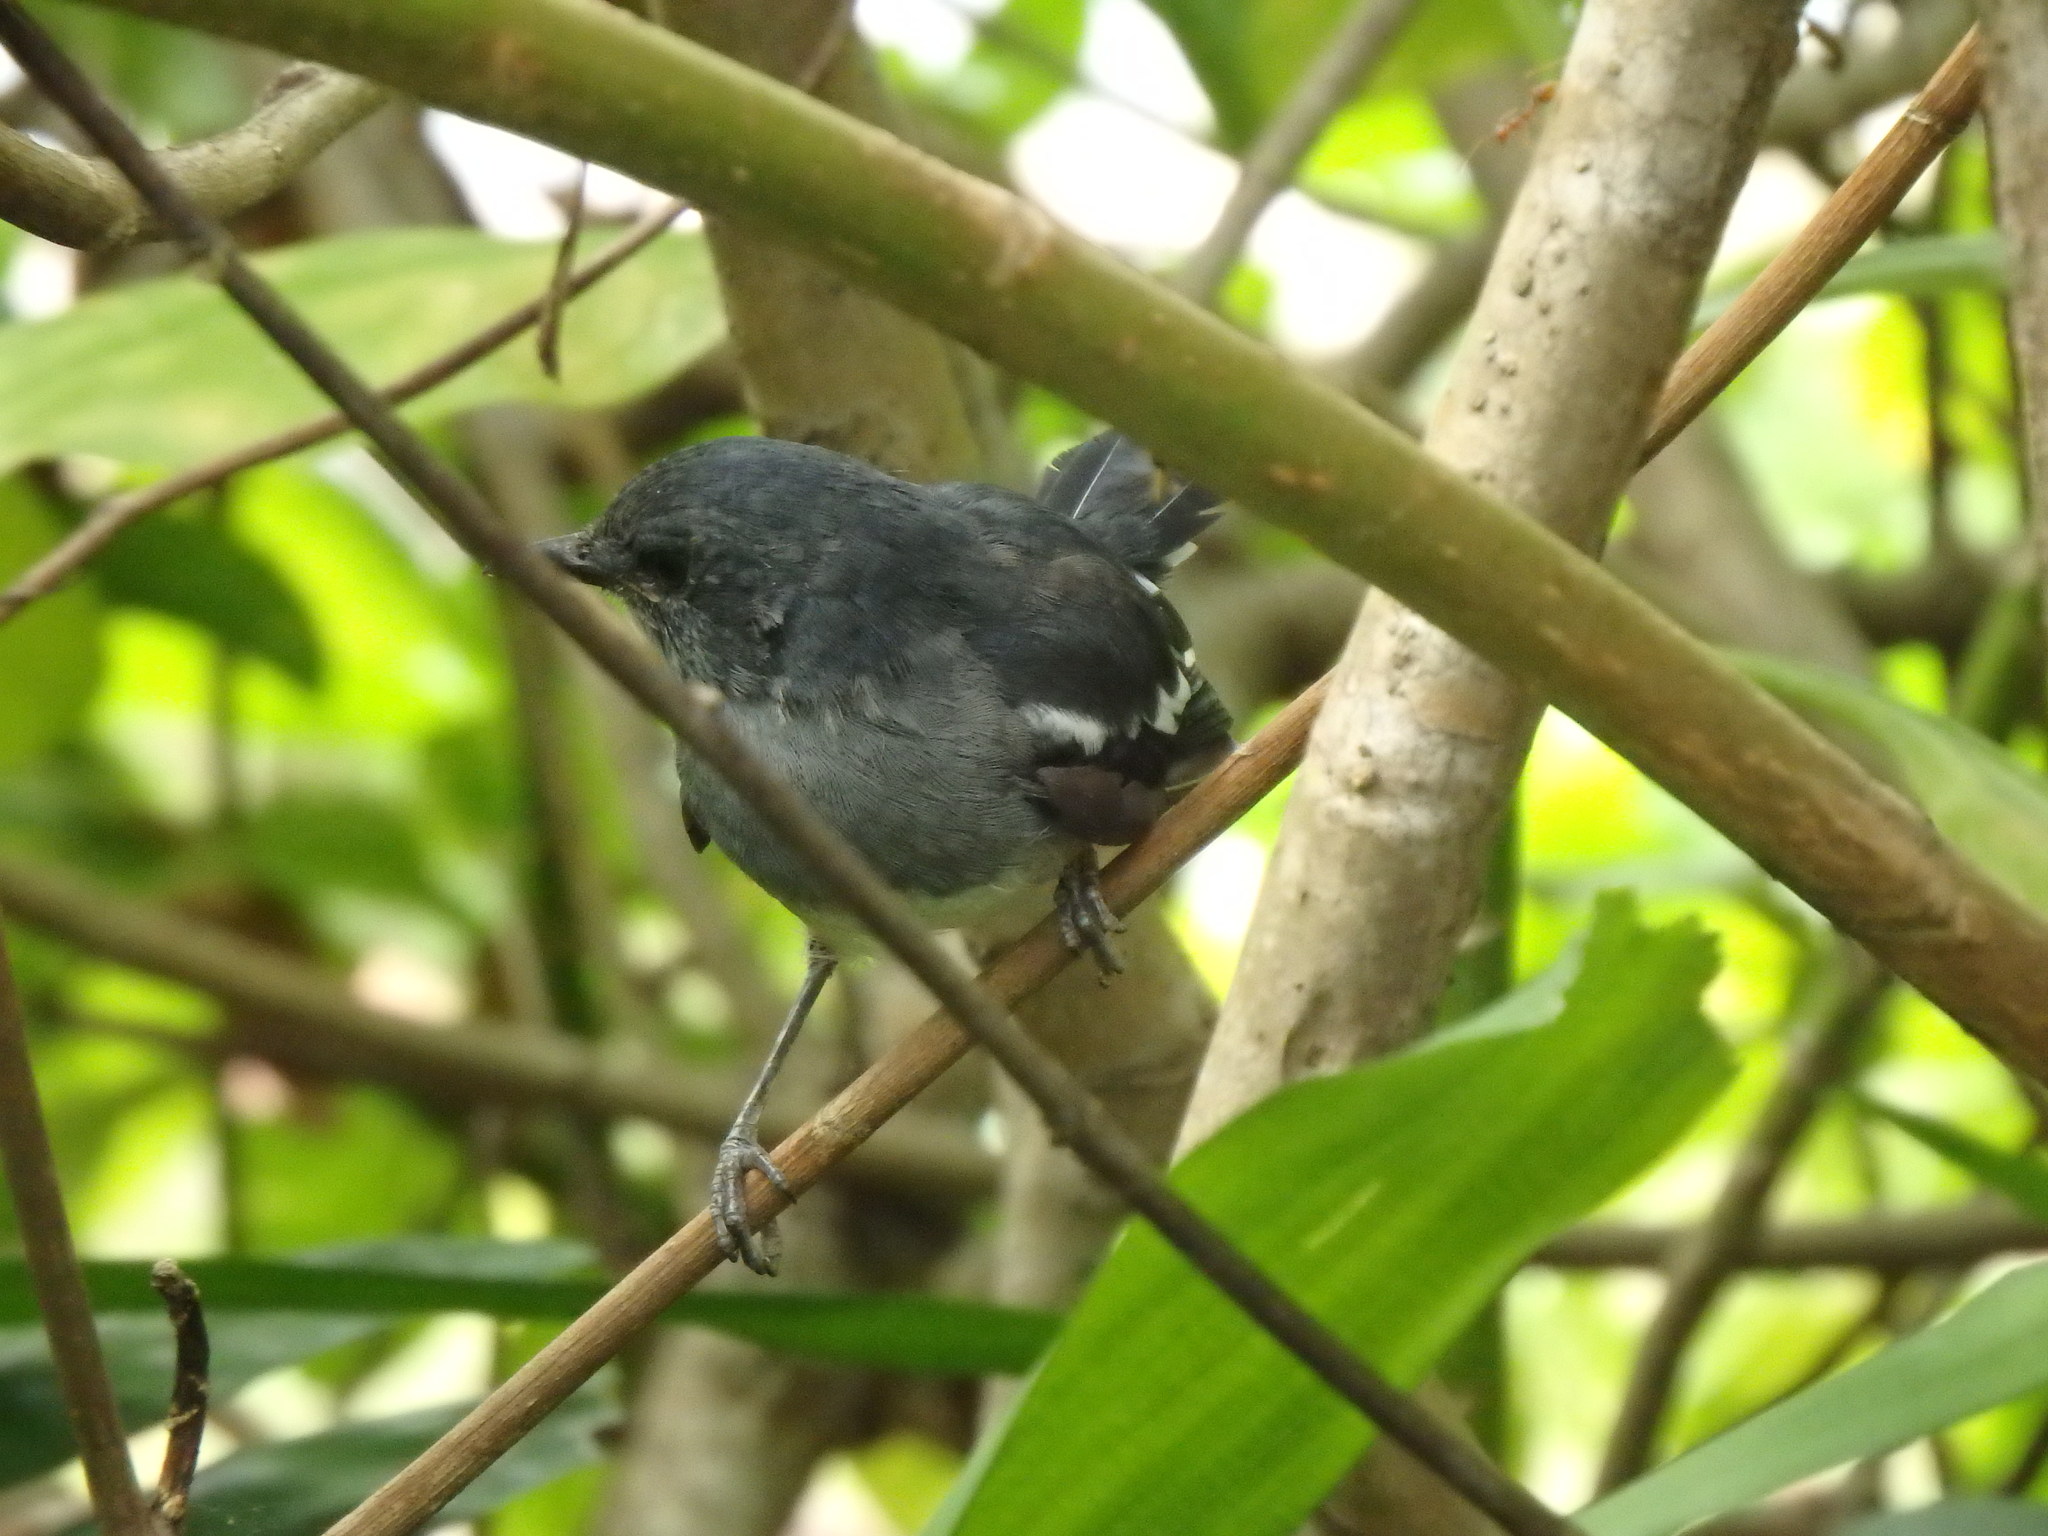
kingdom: Animalia
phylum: Chordata
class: Aves
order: Passeriformes
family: Muscicapidae
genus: Copsychus
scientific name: Copsychus saularis
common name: Oriental magpie-robin
